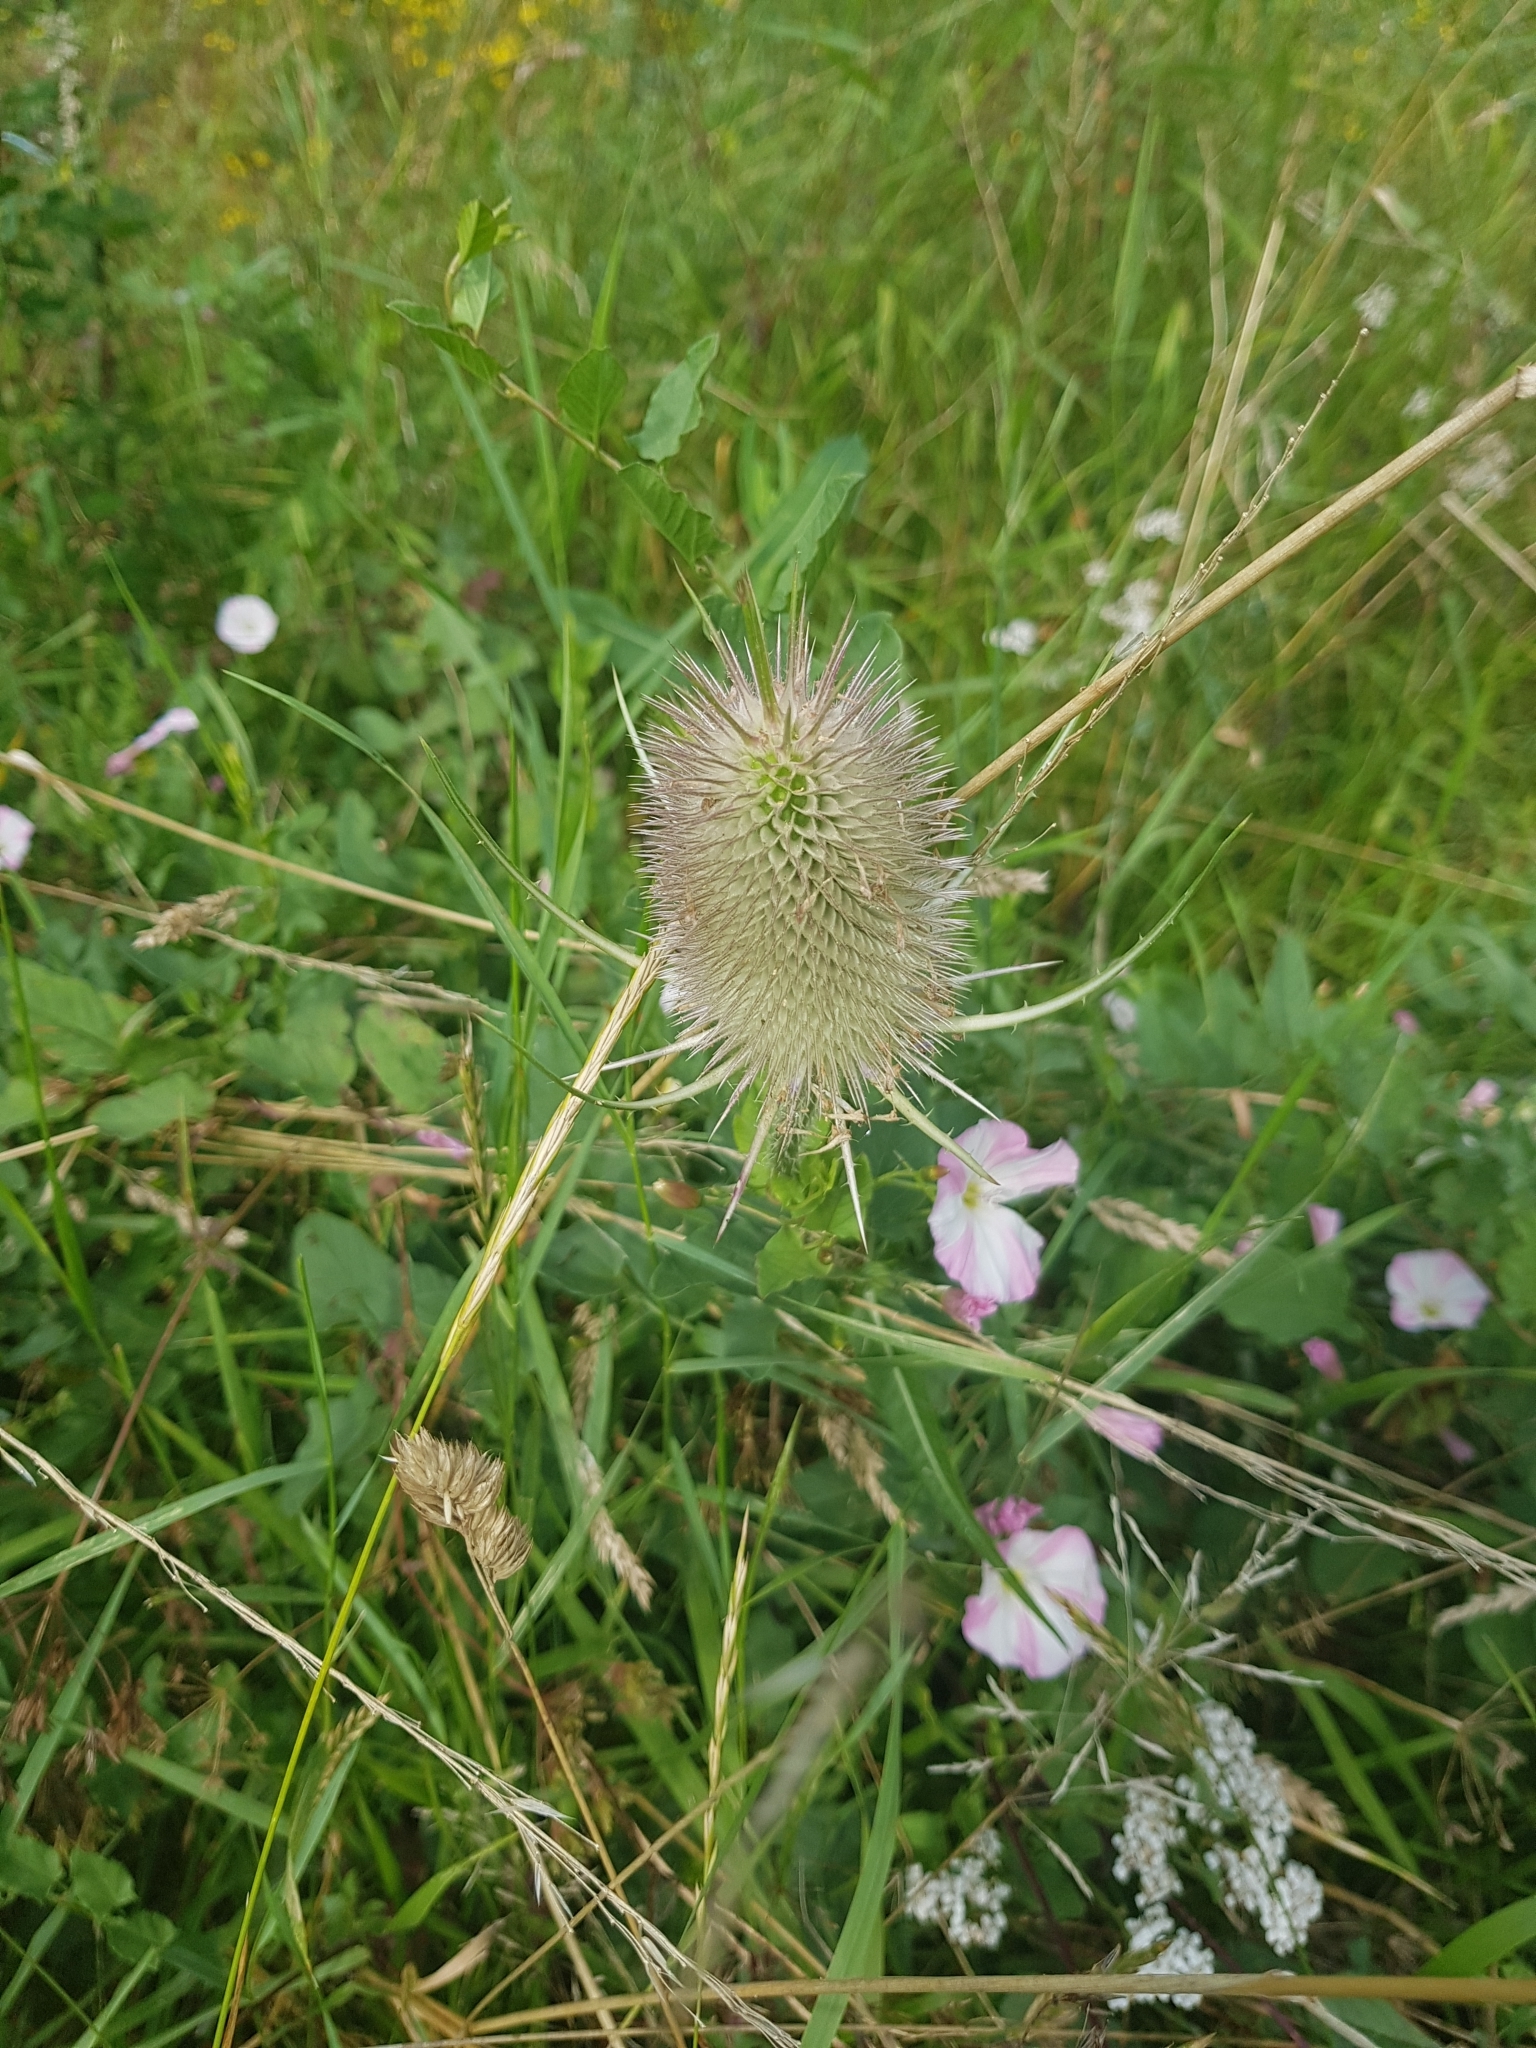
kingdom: Plantae
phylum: Tracheophyta
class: Magnoliopsida
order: Dipsacales
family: Caprifoliaceae
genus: Dipsacus
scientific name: Dipsacus fullonum
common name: Teasel
